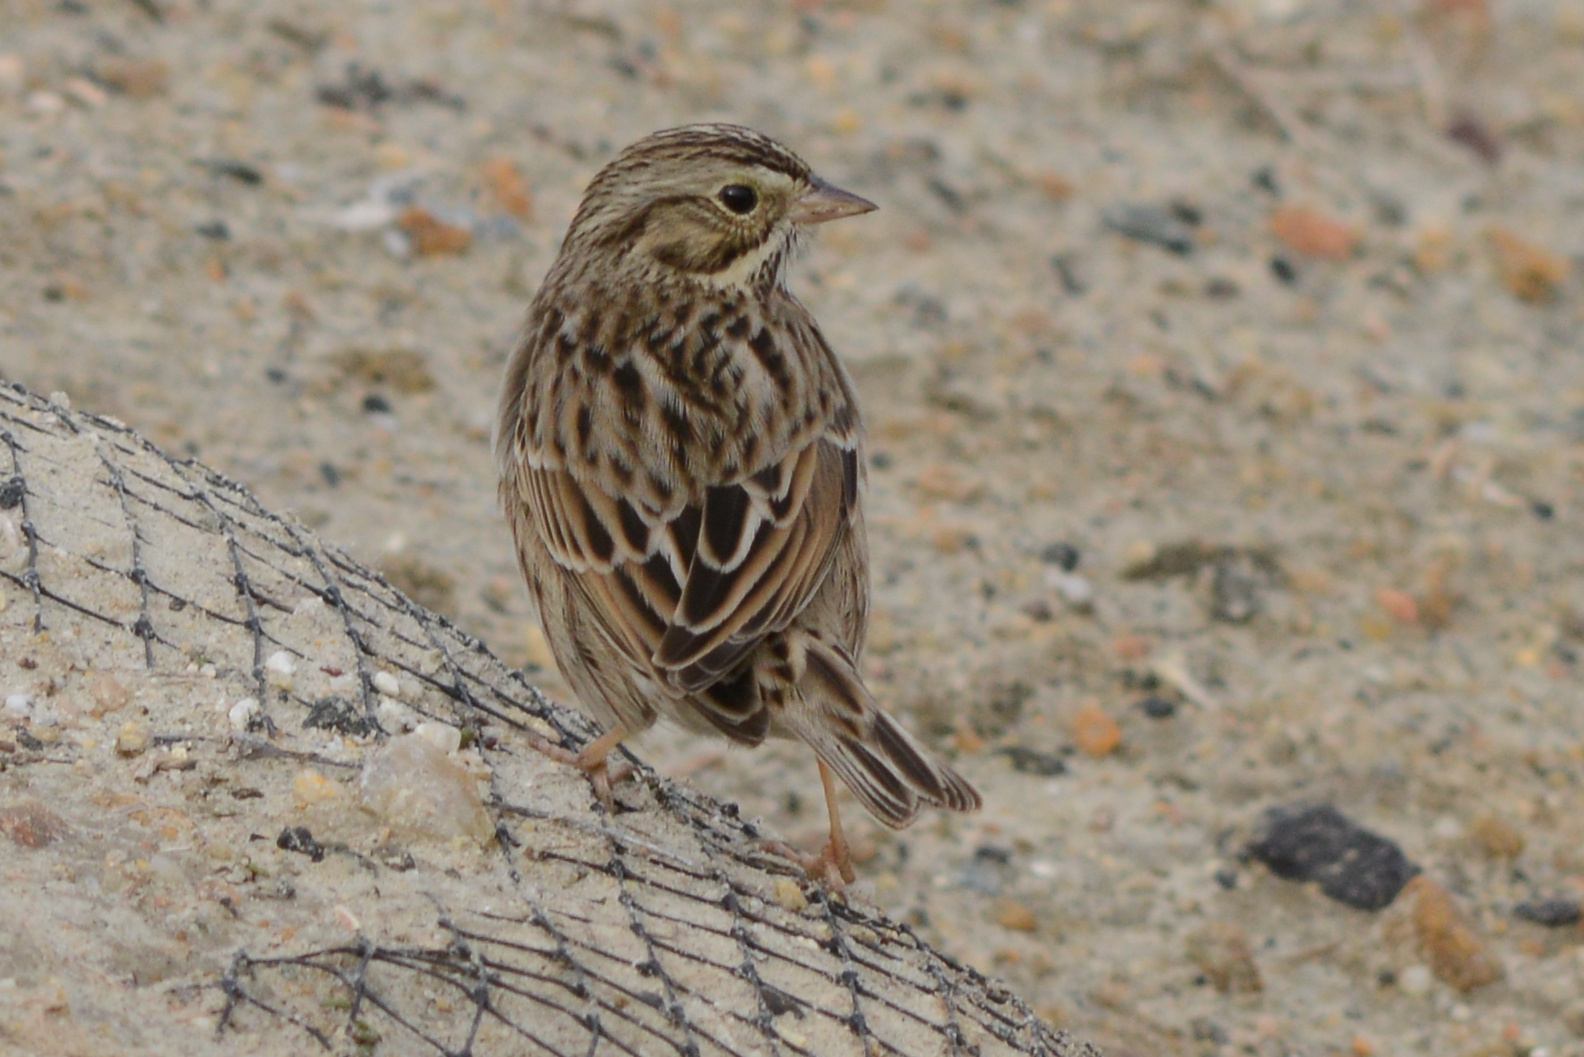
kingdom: Animalia
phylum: Chordata
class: Aves
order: Passeriformes
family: Passerellidae
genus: Passerculus
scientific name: Passerculus sandwichensis
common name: Savannah sparrow
